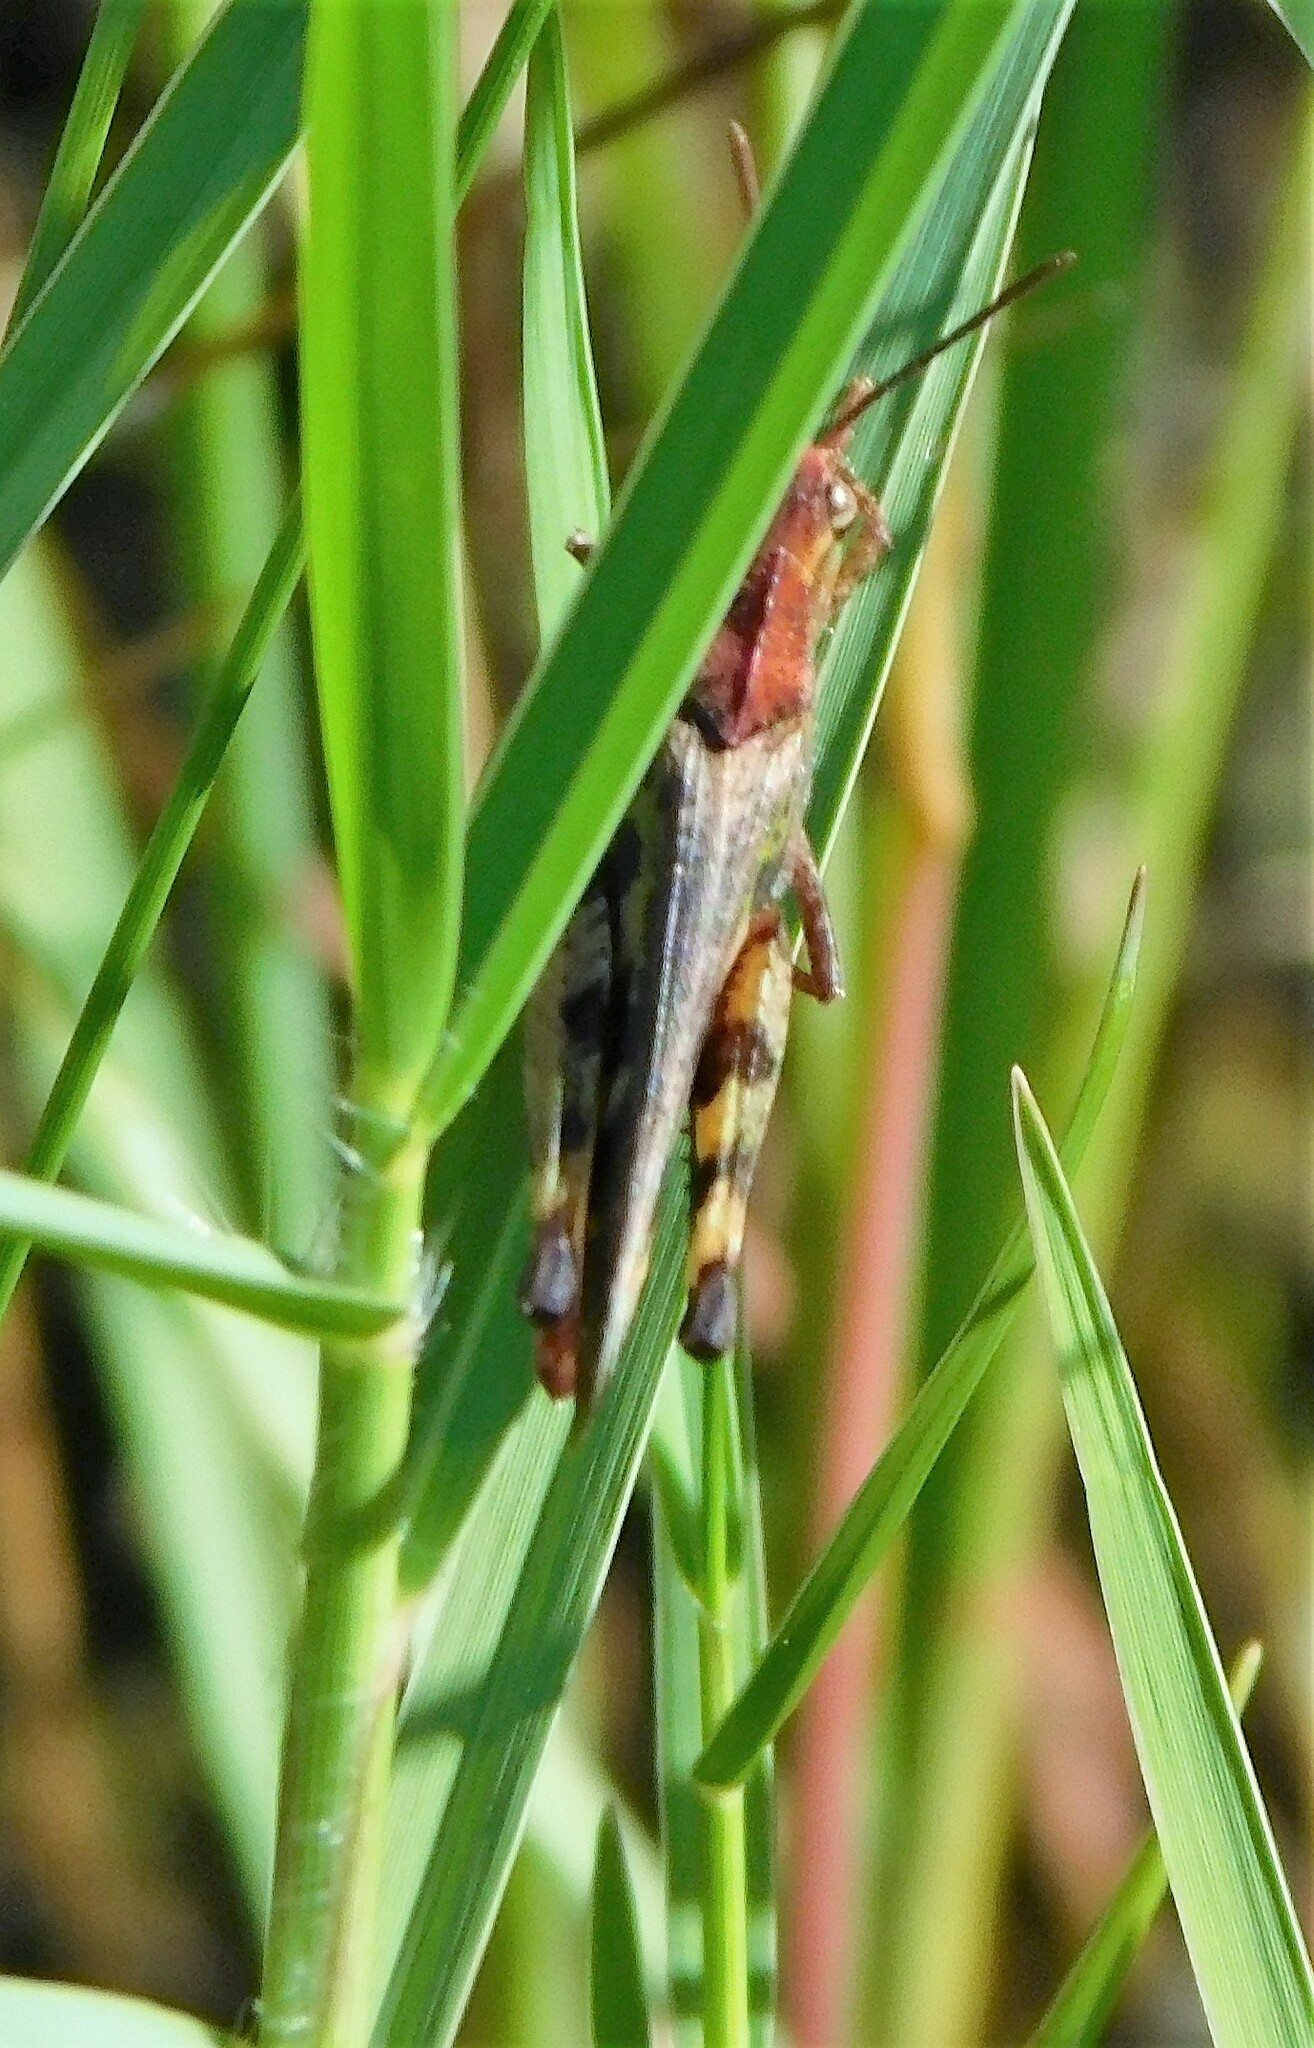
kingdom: Animalia
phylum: Arthropoda
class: Insecta
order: Orthoptera
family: Acrididae
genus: Chortophaga
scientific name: Chortophaga australior
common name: Southern green-striped grasshopper
